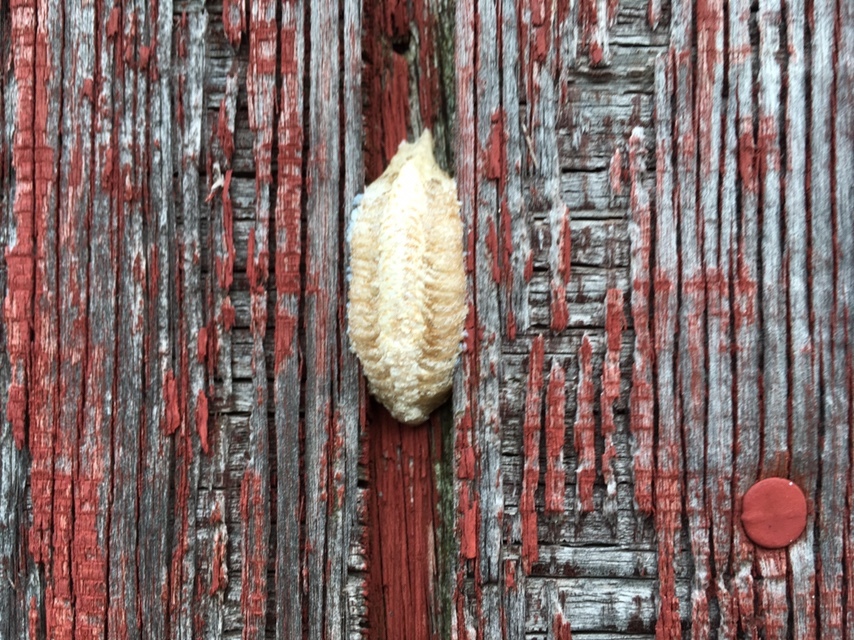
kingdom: Animalia
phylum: Arthropoda
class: Insecta
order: Mantodea
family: Mantidae
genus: Mantis
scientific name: Mantis religiosa
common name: Praying mantis
